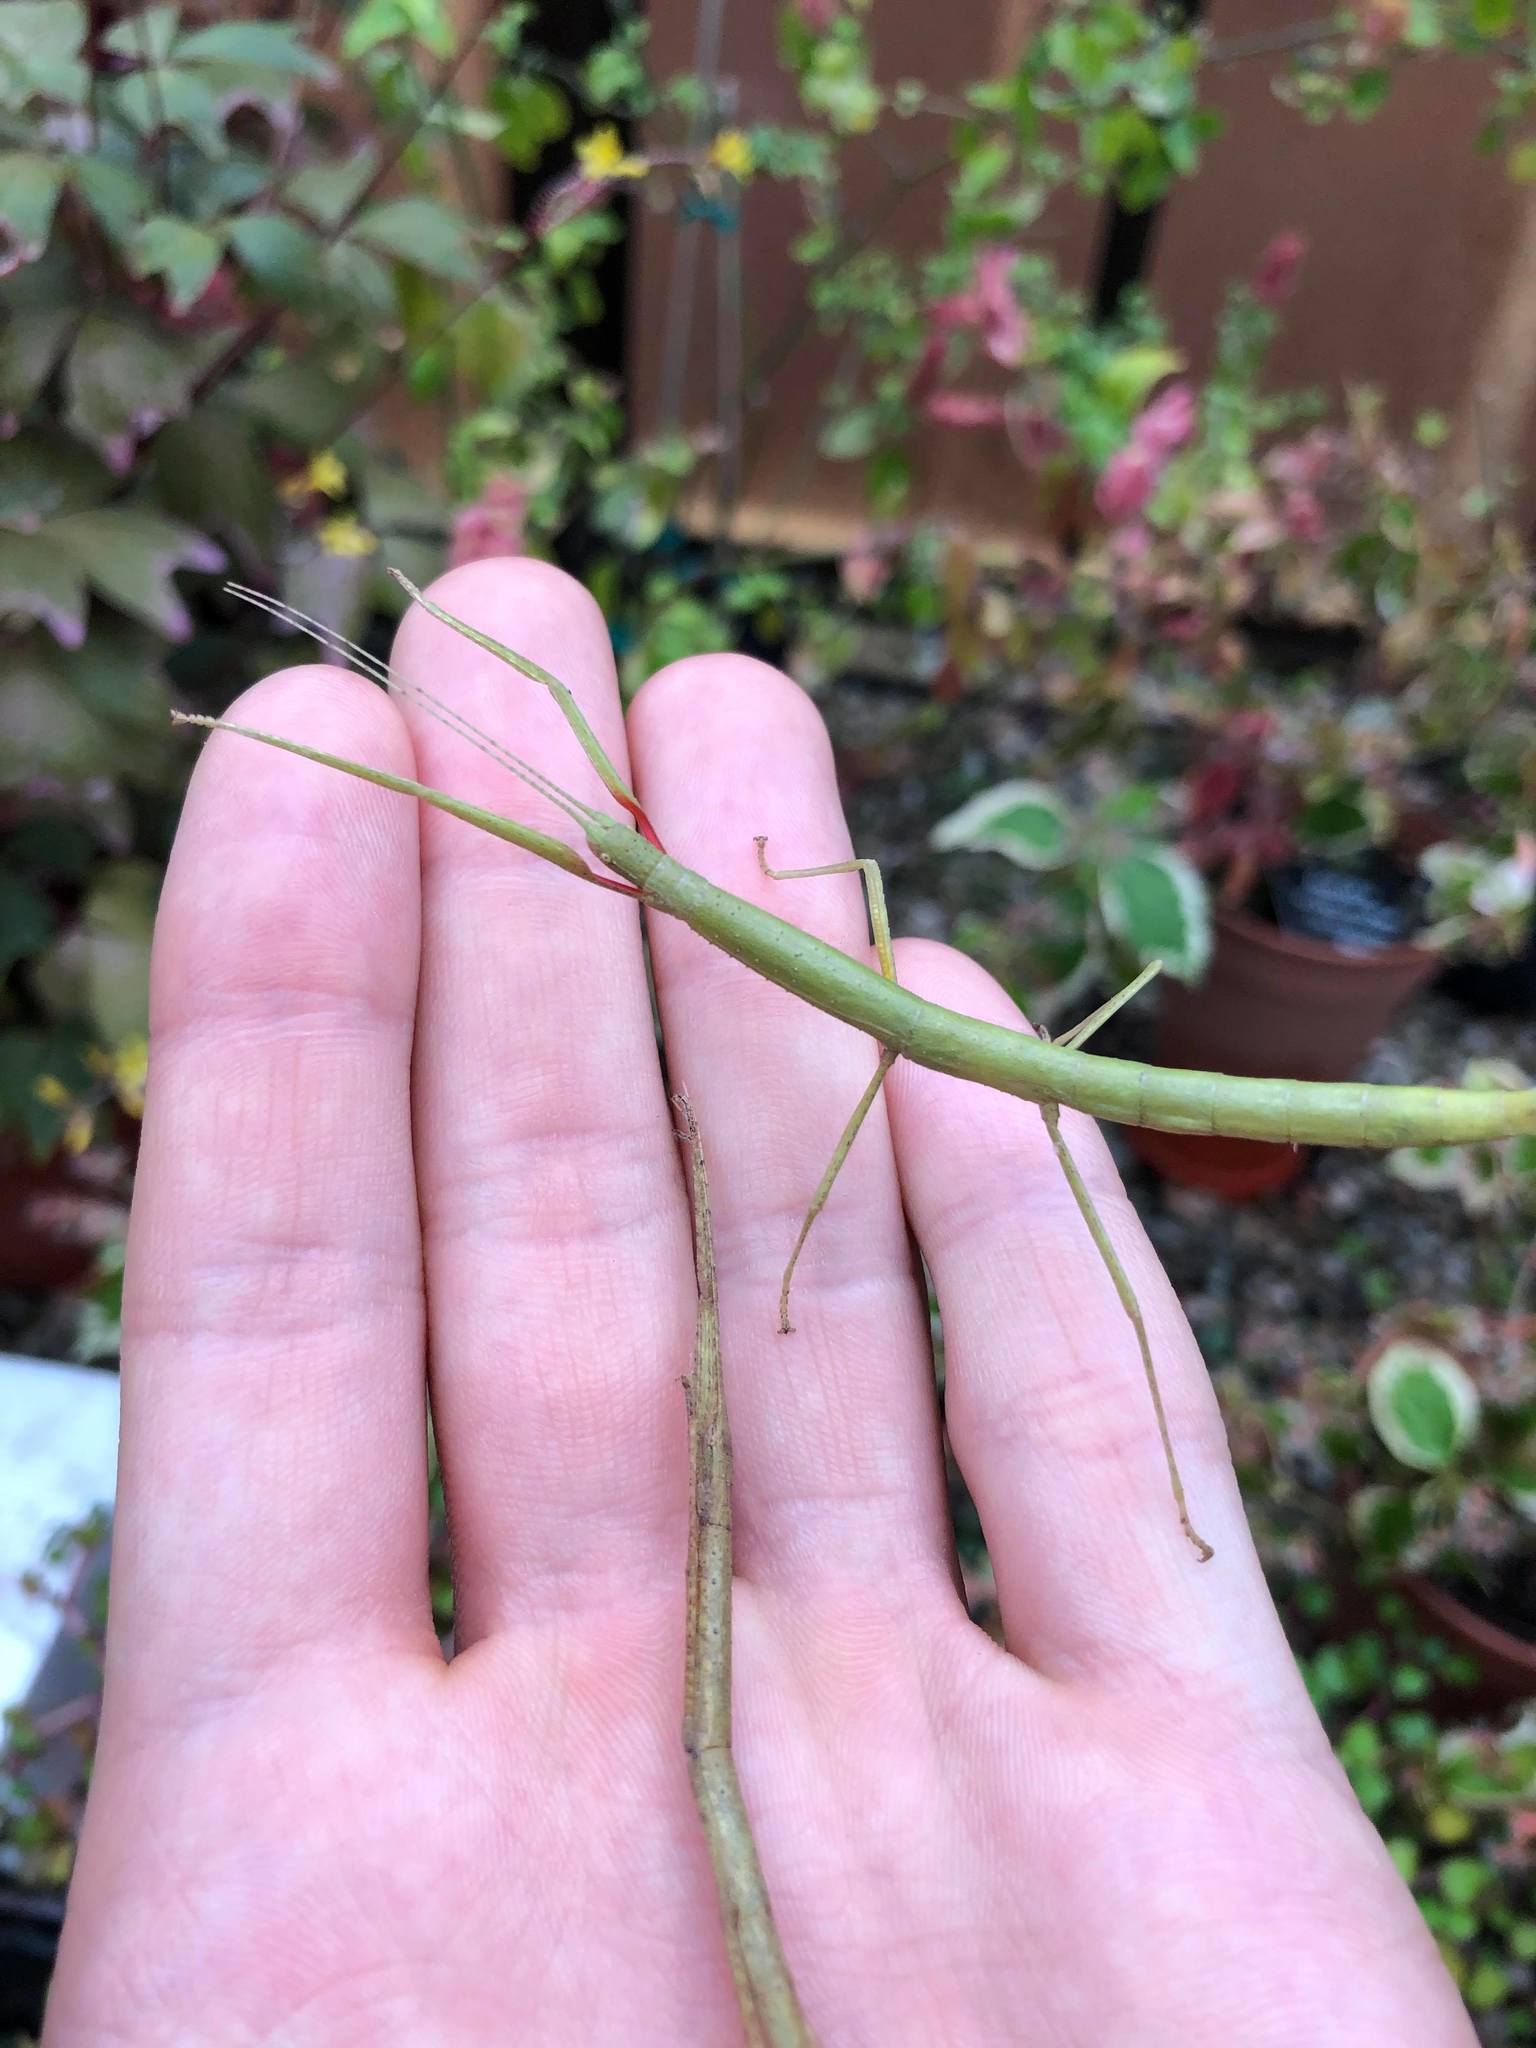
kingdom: Animalia
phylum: Arthropoda
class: Insecta
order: Phasmida
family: Lonchodidae
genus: Carausius
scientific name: Carausius morosus
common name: Indian stick insect
